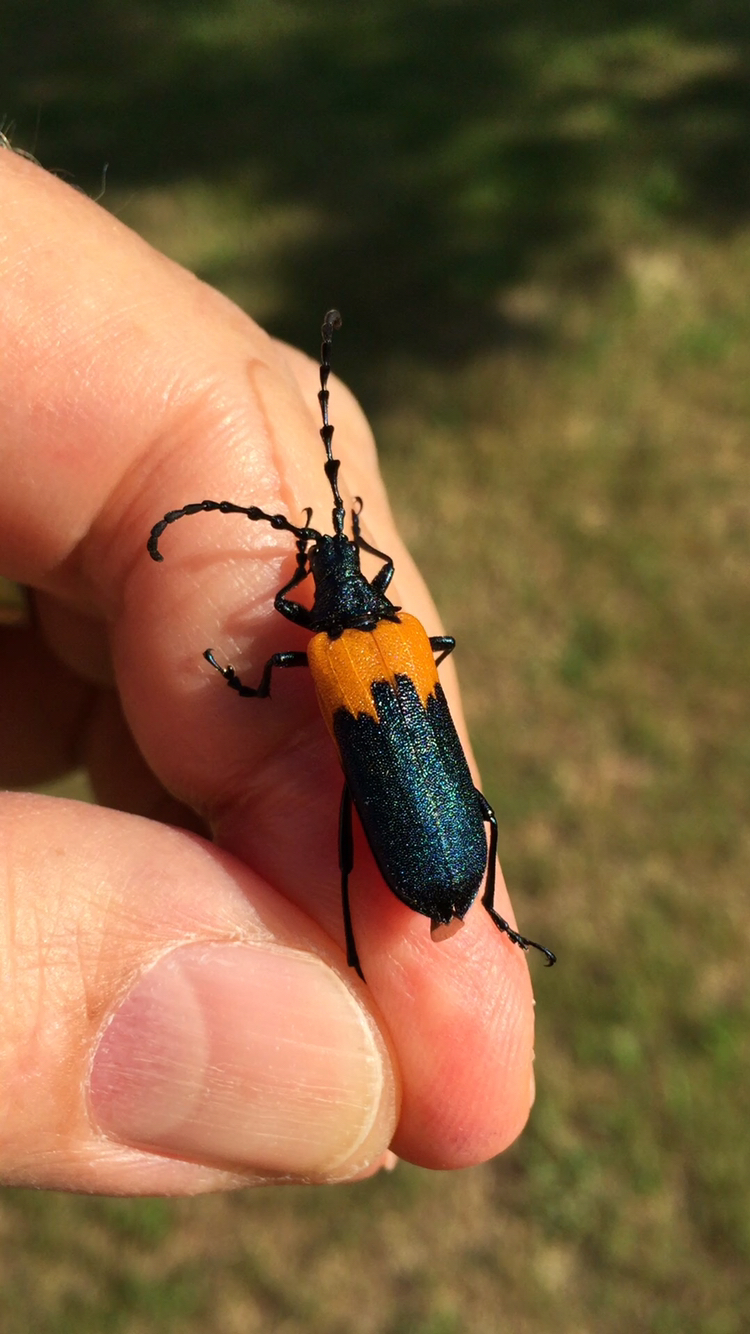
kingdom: Animalia
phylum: Arthropoda
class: Insecta
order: Coleoptera
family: Cerambycidae
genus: Desmocerus
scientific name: Desmocerus palliatus
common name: Eastern elderberry borer
